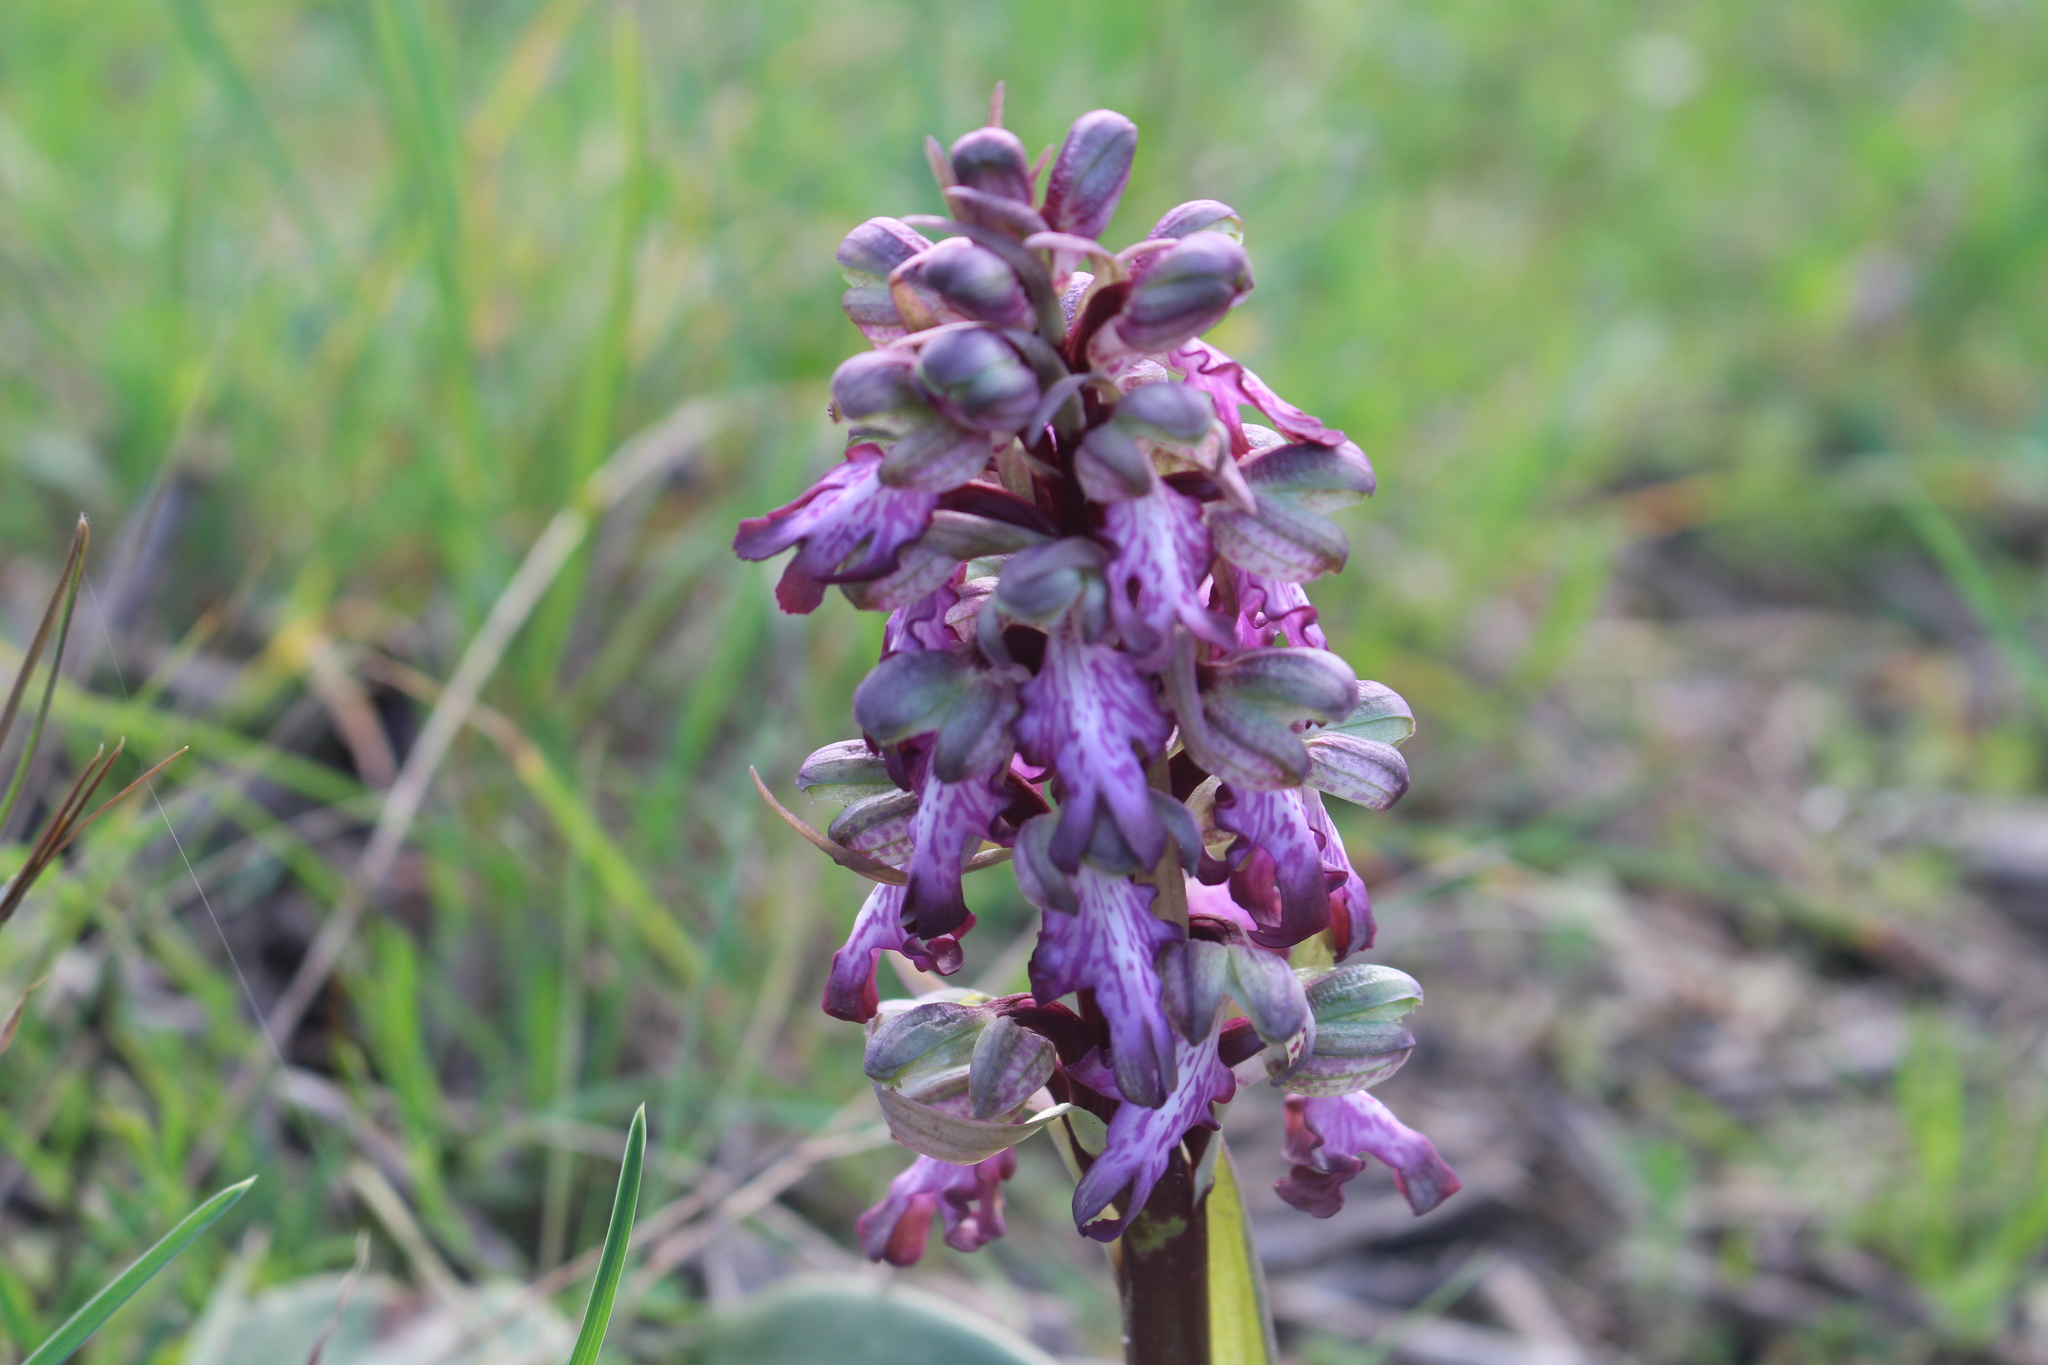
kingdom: Plantae
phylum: Tracheophyta
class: Liliopsida
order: Asparagales
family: Orchidaceae
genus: Himantoglossum
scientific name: Himantoglossum robertianum
